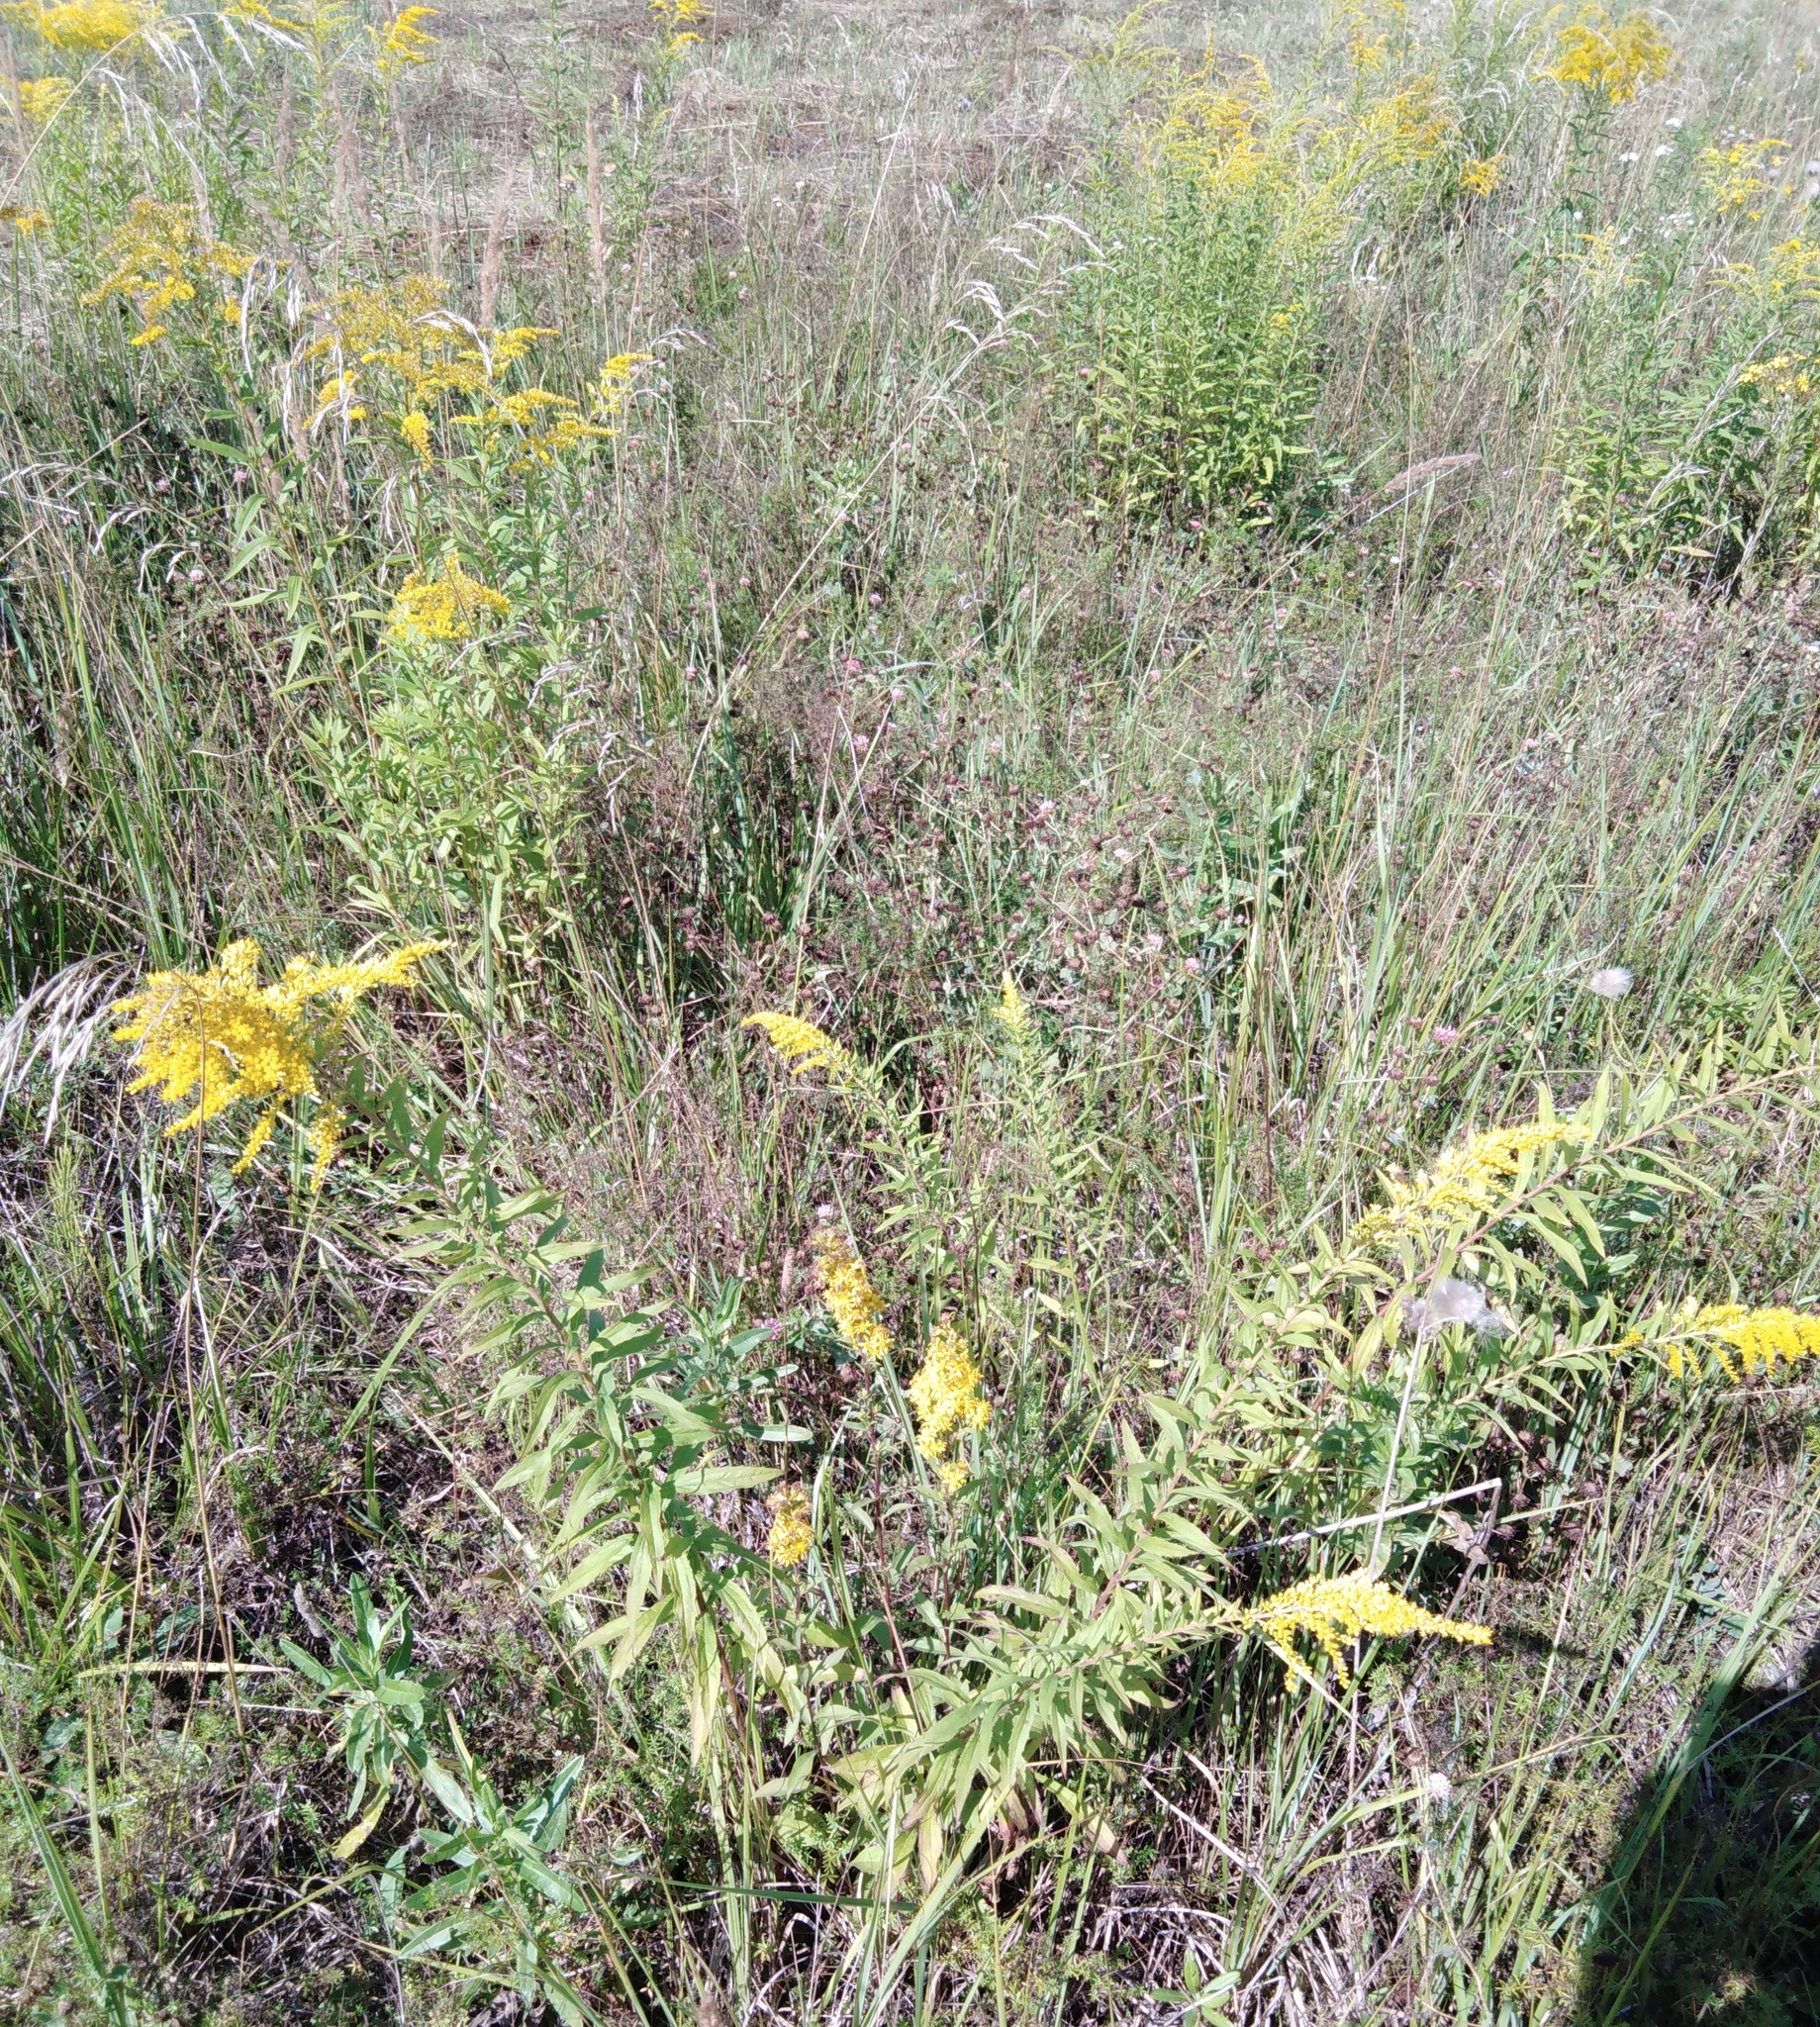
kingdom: Plantae
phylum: Tracheophyta
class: Magnoliopsida
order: Asterales
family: Asteraceae
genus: Solidago
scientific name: Solidago canadensis
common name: Canada goldenrod
